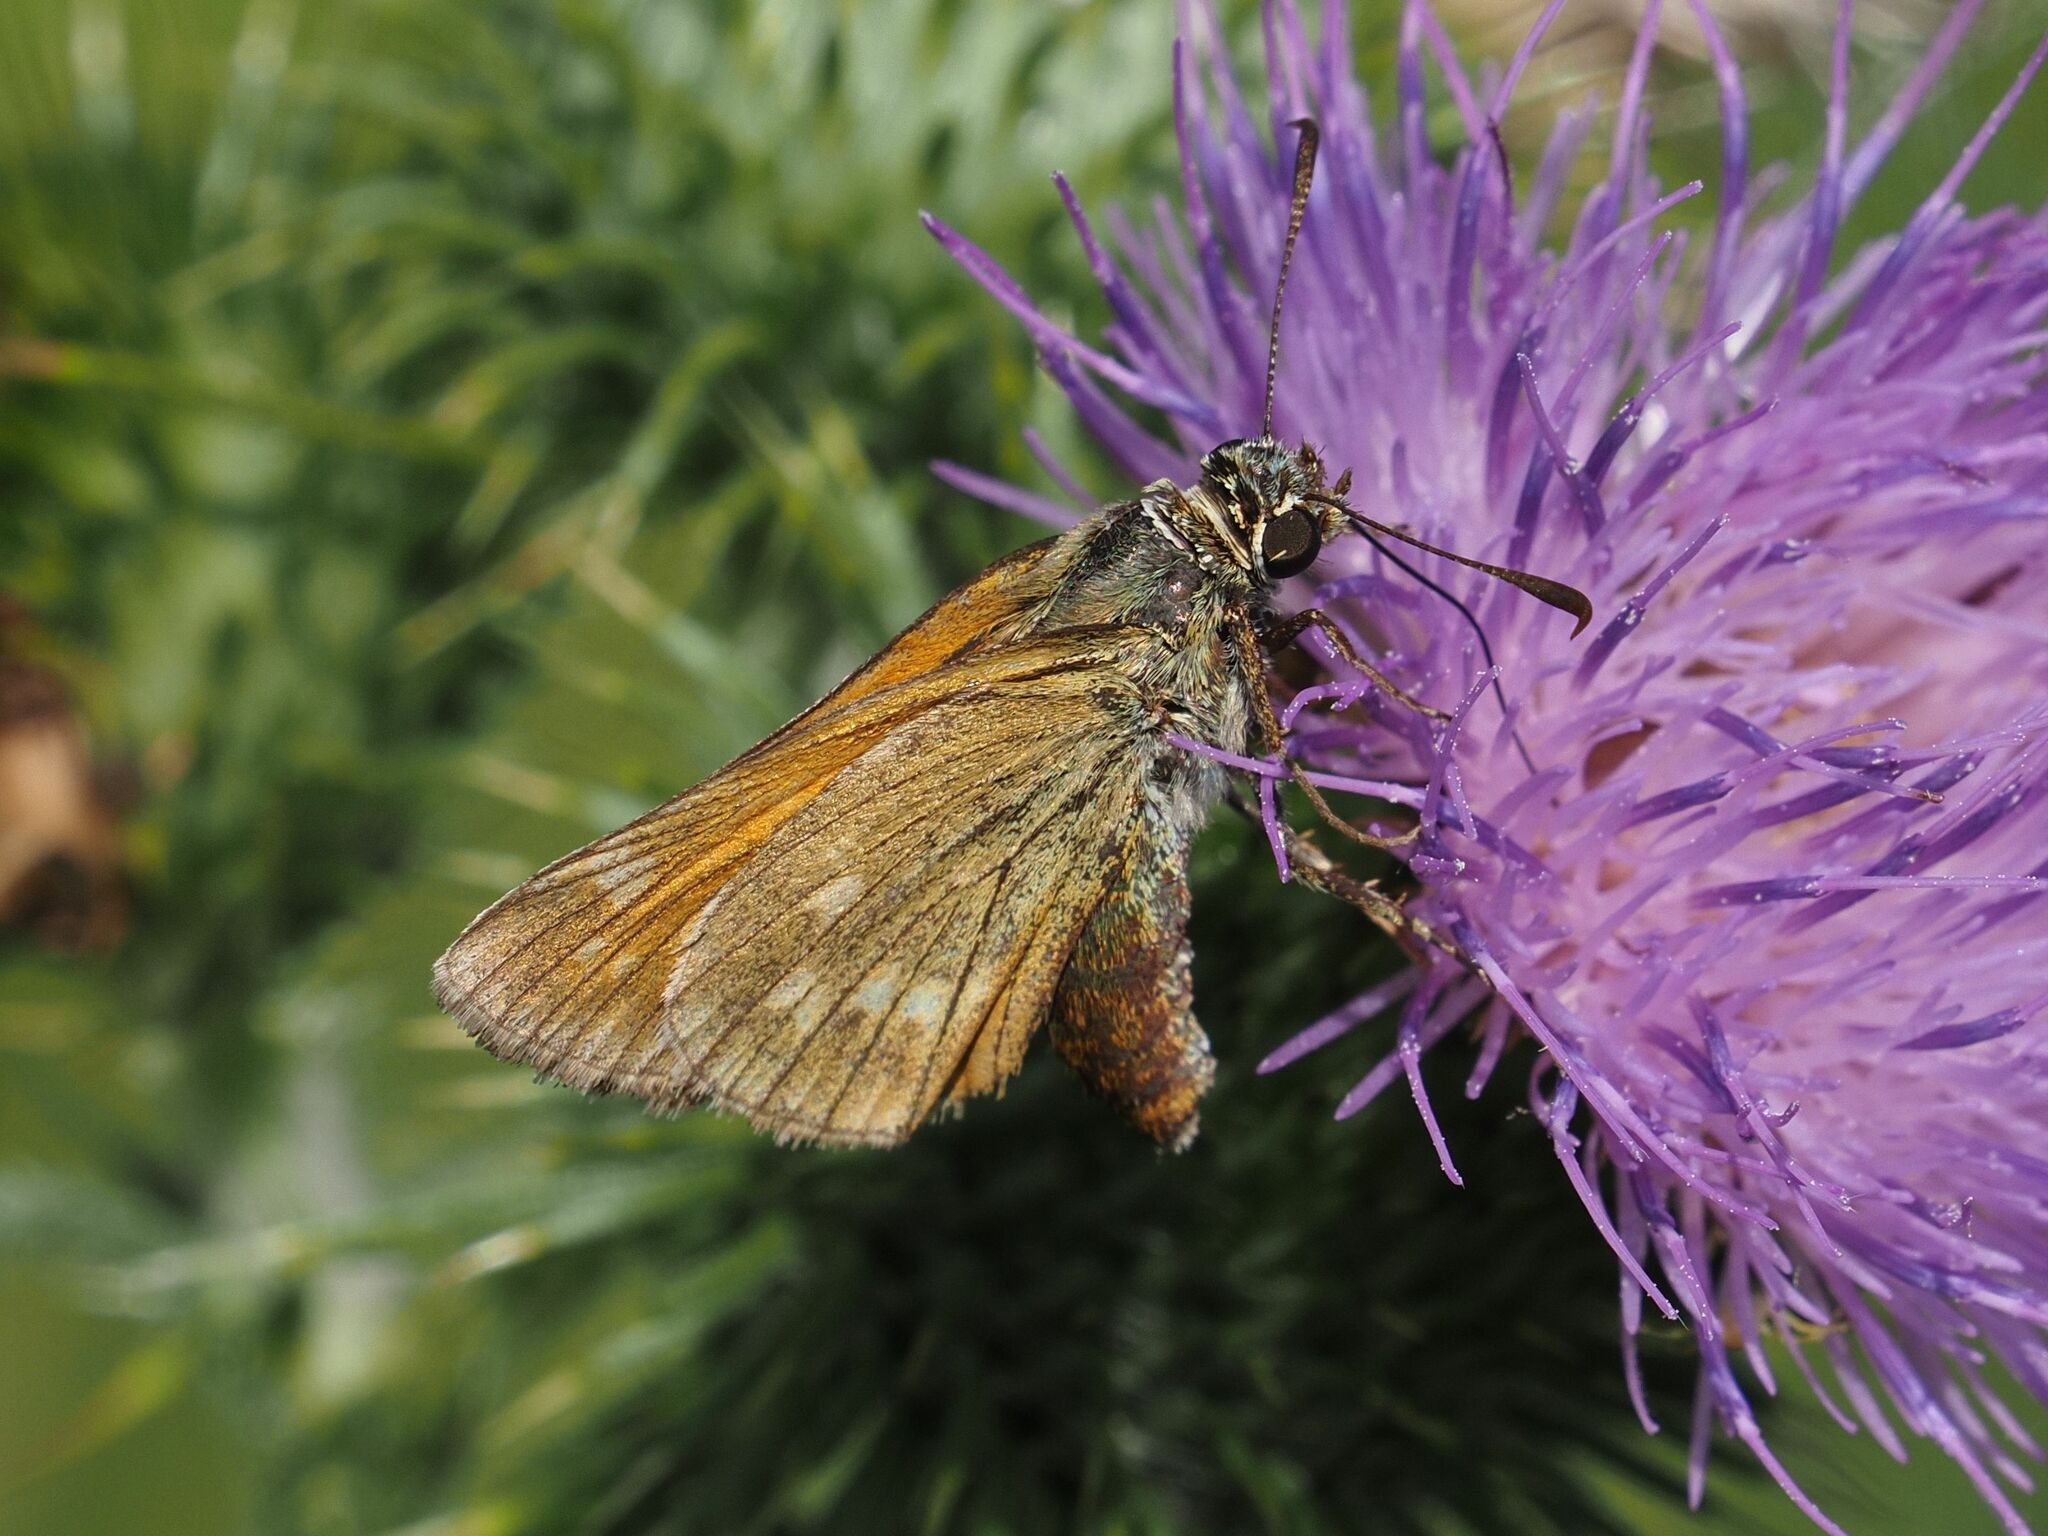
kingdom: Animalia
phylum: Arthropoda
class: Insecta
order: Lepidoptera
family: Hesperiidae
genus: Ochlodes
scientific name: Ochlodes venata
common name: Large skipper
